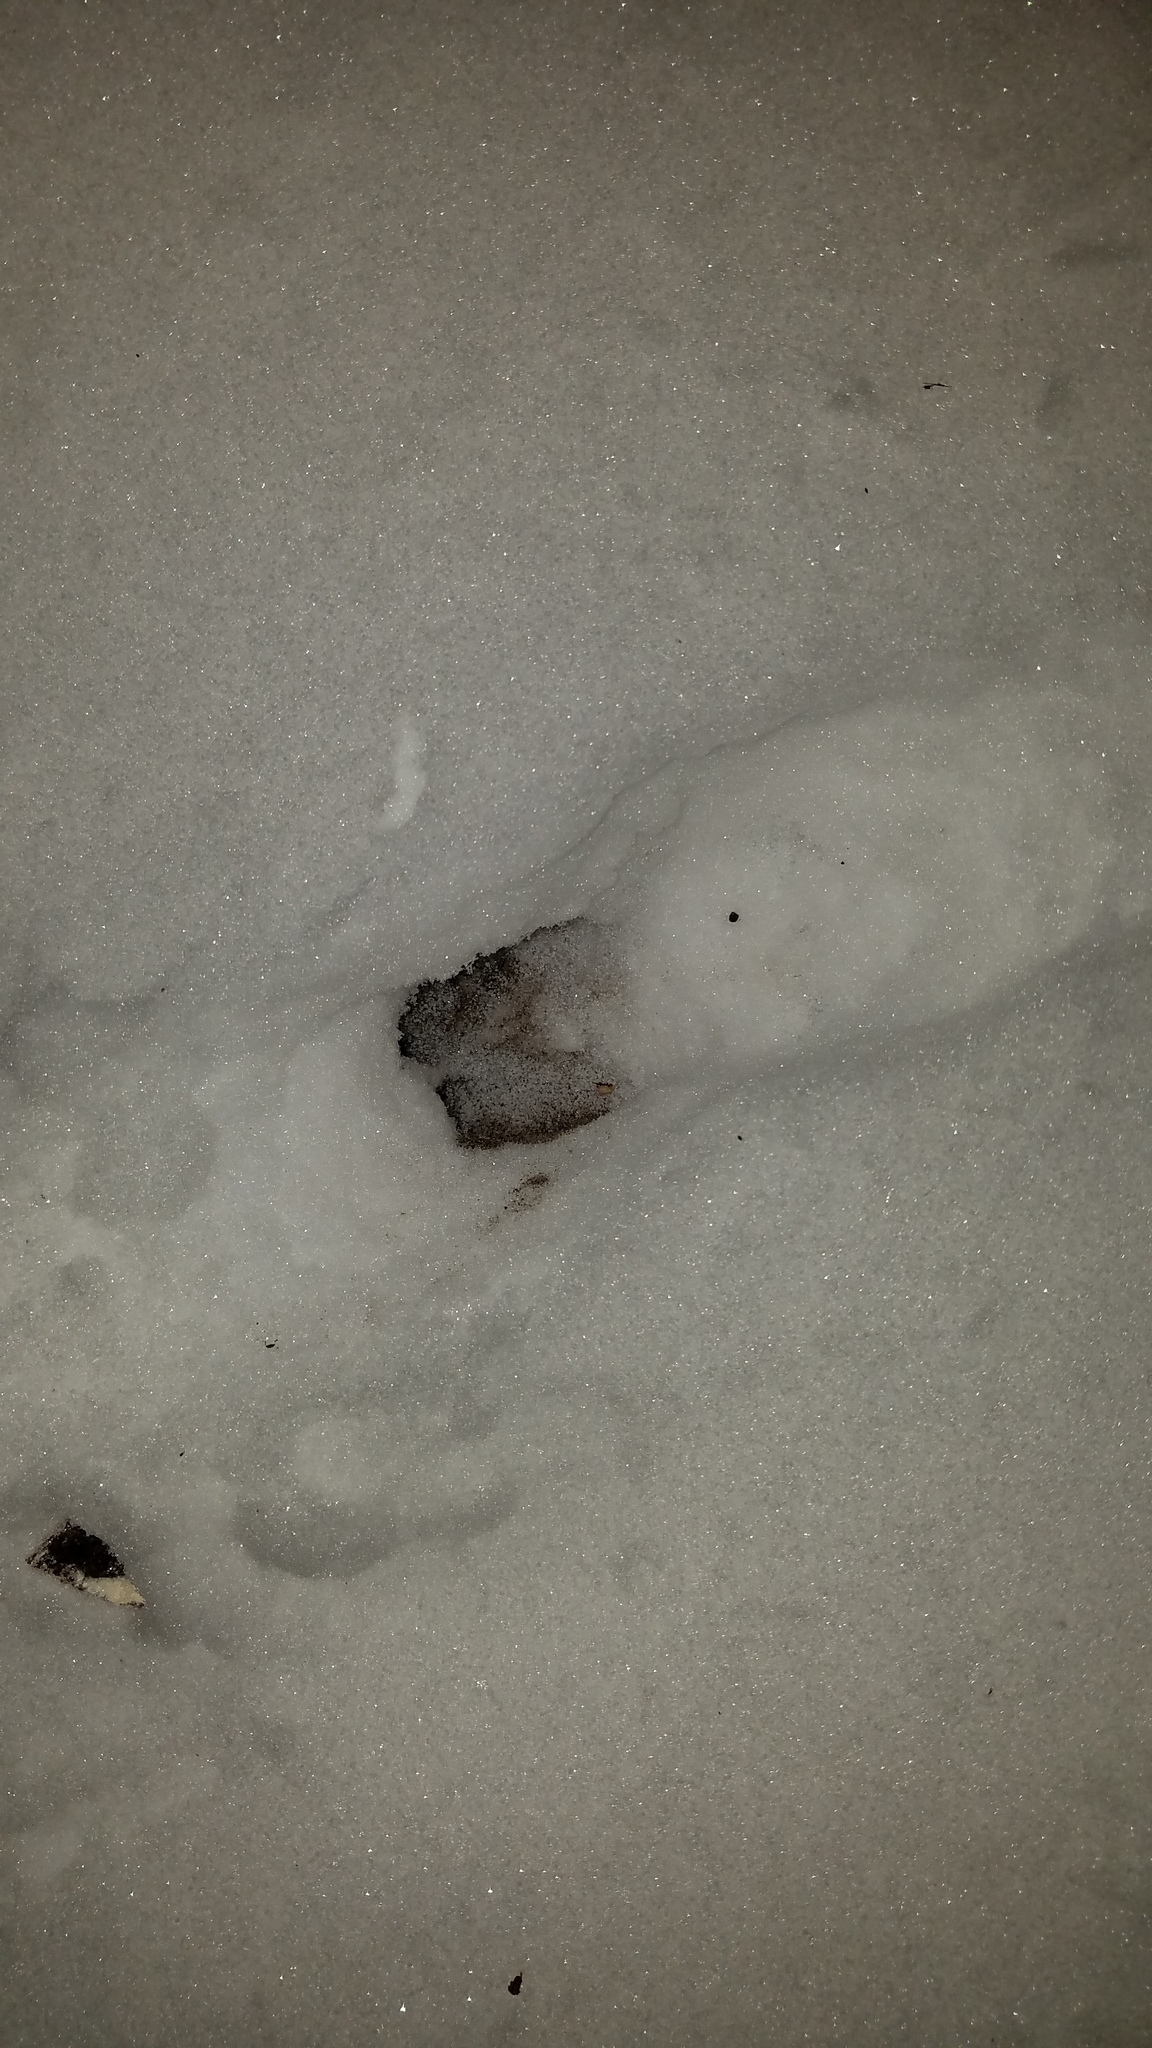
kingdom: Animalia
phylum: Chordata
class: Mammalia
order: Artiodactyla
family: Cervidae
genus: Odocoileus
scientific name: Odocoileus virginianus
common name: White-tailed deer
